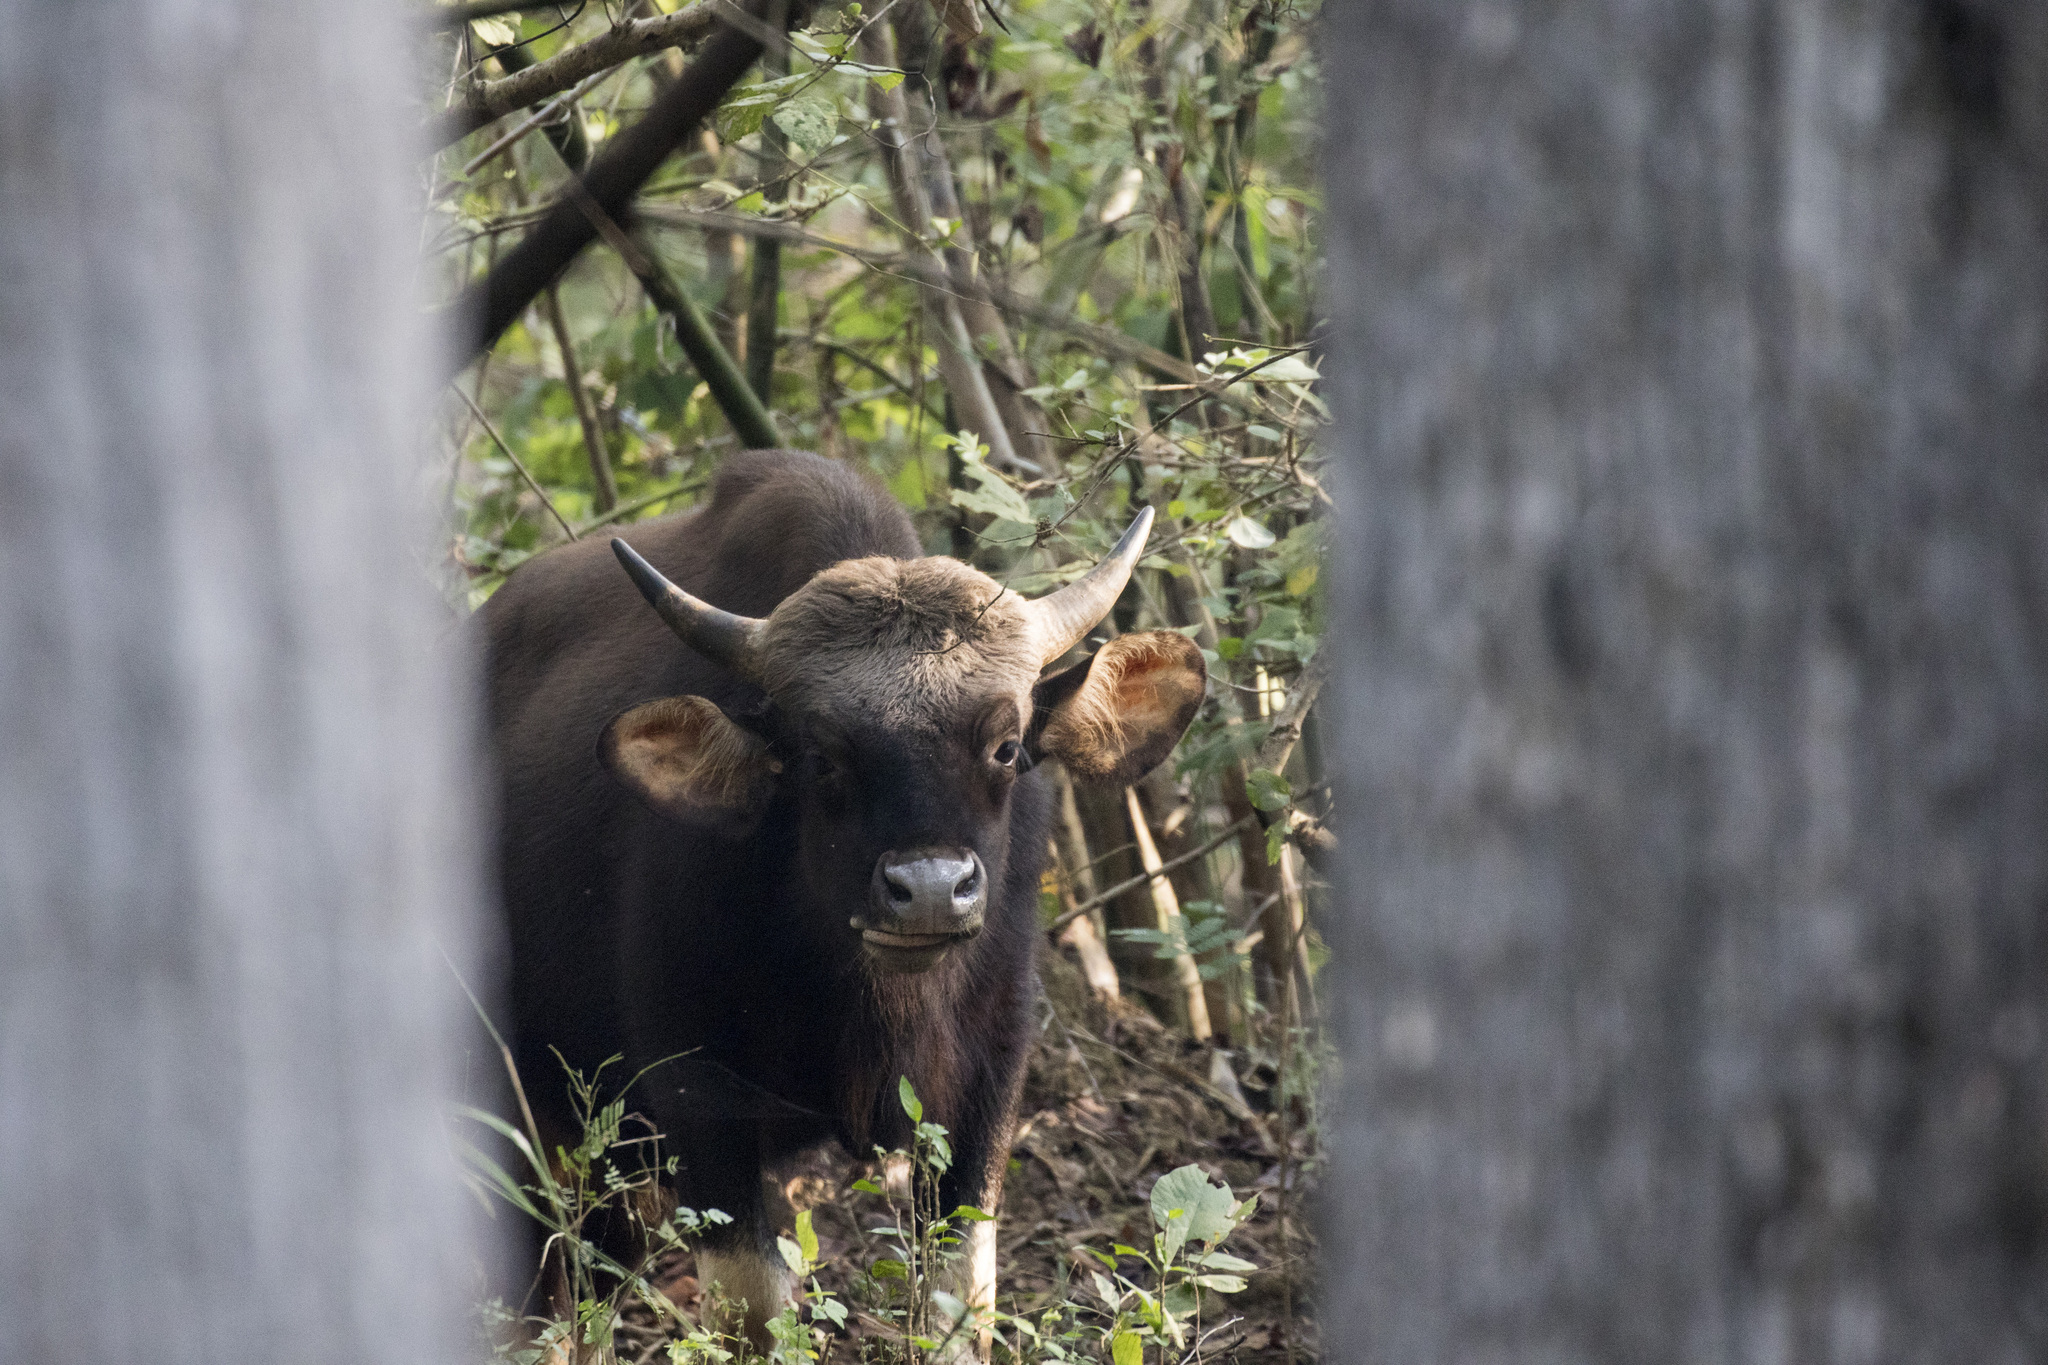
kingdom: Animalia
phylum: Chordata
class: Mammalia
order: Artiodactyla
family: Bovidae
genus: Bos
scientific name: Bos frontalis
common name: Gaur
